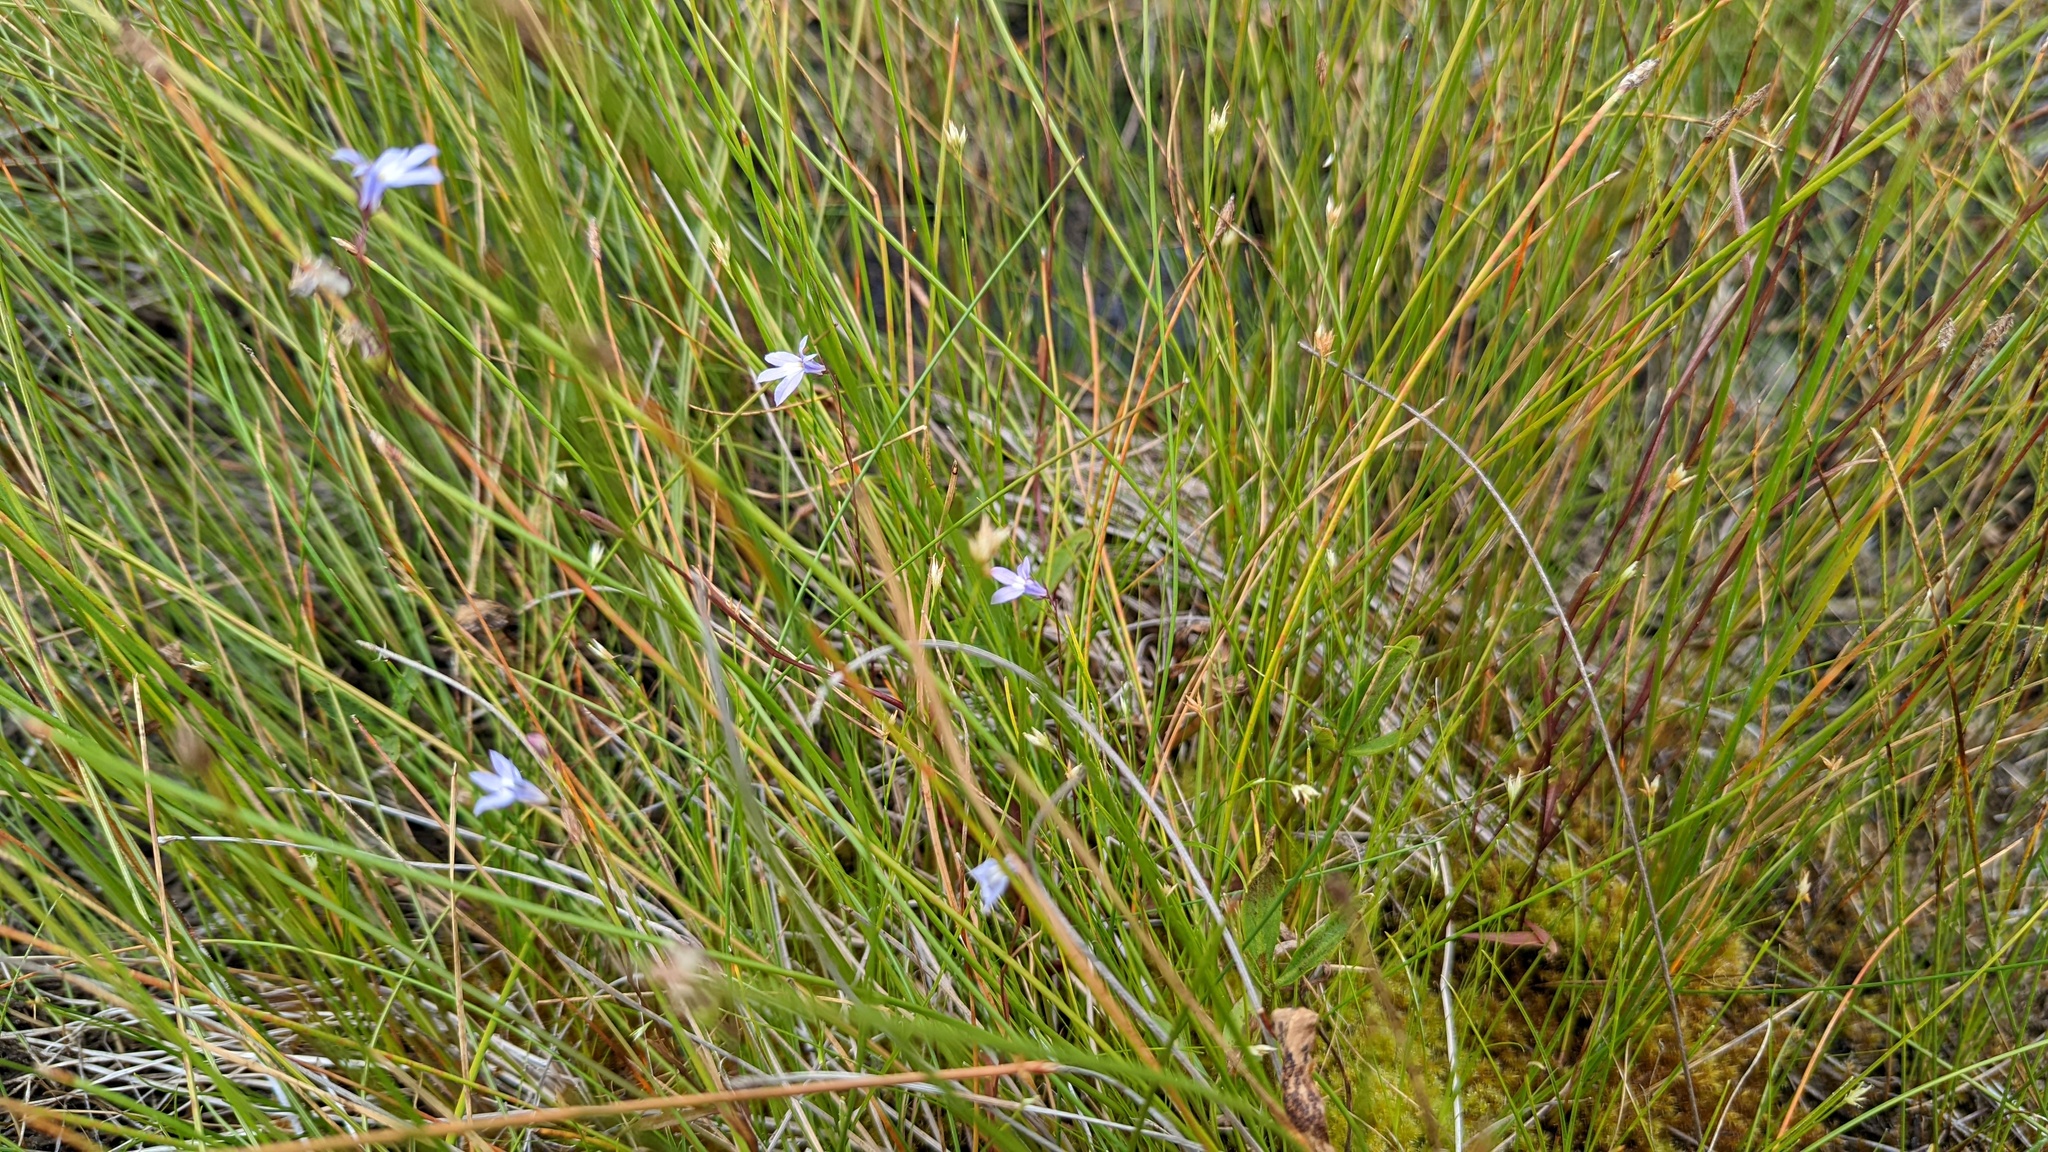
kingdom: Plantae
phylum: Tracheophyta
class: Liliopsida
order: Poales
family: Cyperaceae
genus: Rhynchospora
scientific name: Rhynchospora alba
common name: White beak-sedge
